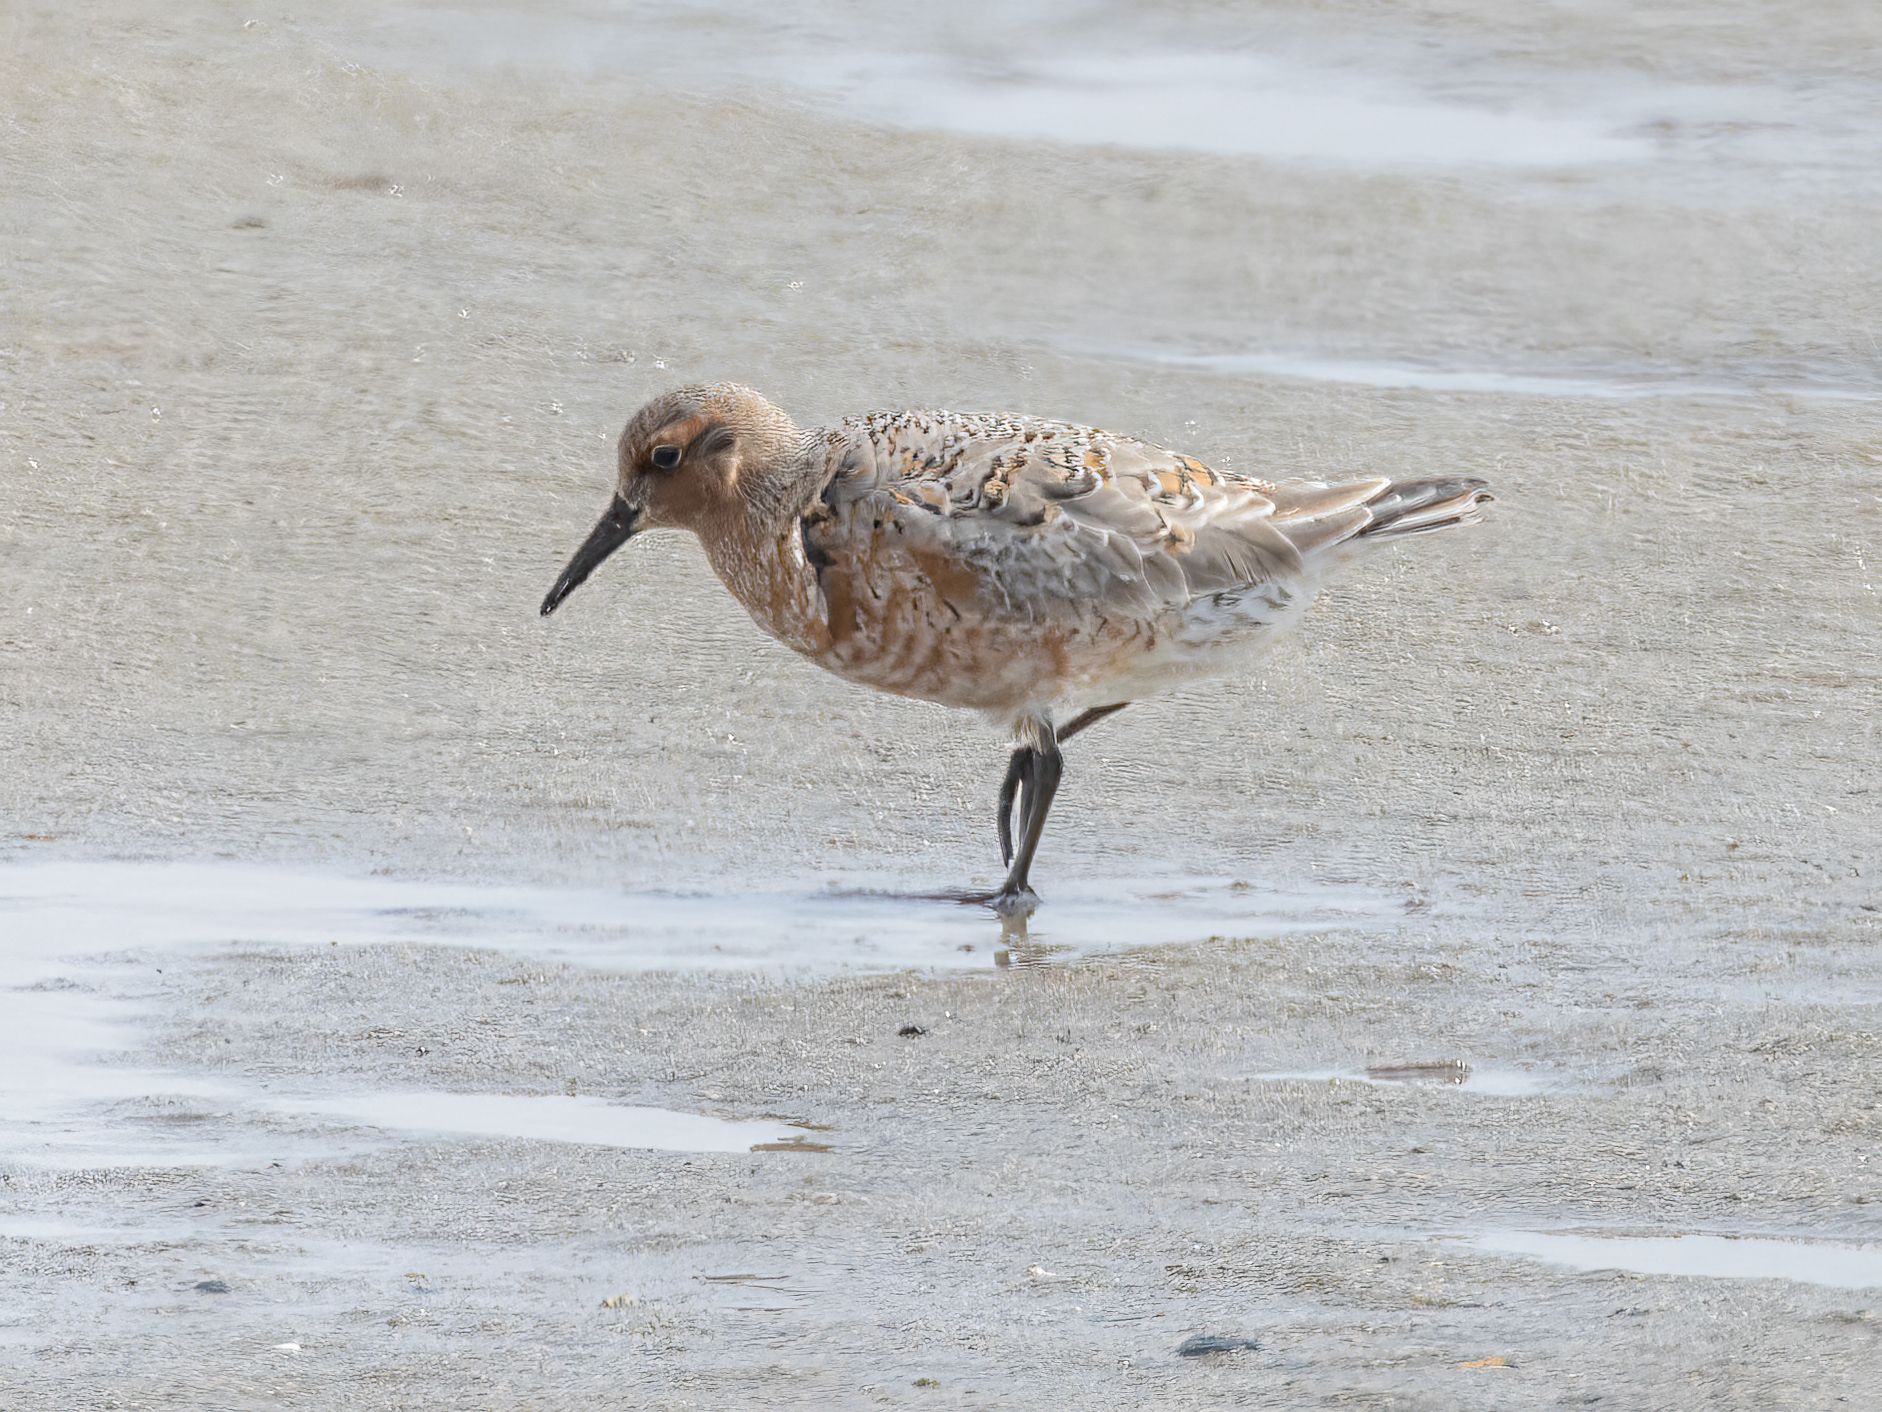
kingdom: Animalia
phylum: Chordata
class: Aves
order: Charadriiformes
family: Scolopacidae
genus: Calidris
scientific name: Calidris canutus
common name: Red knot
